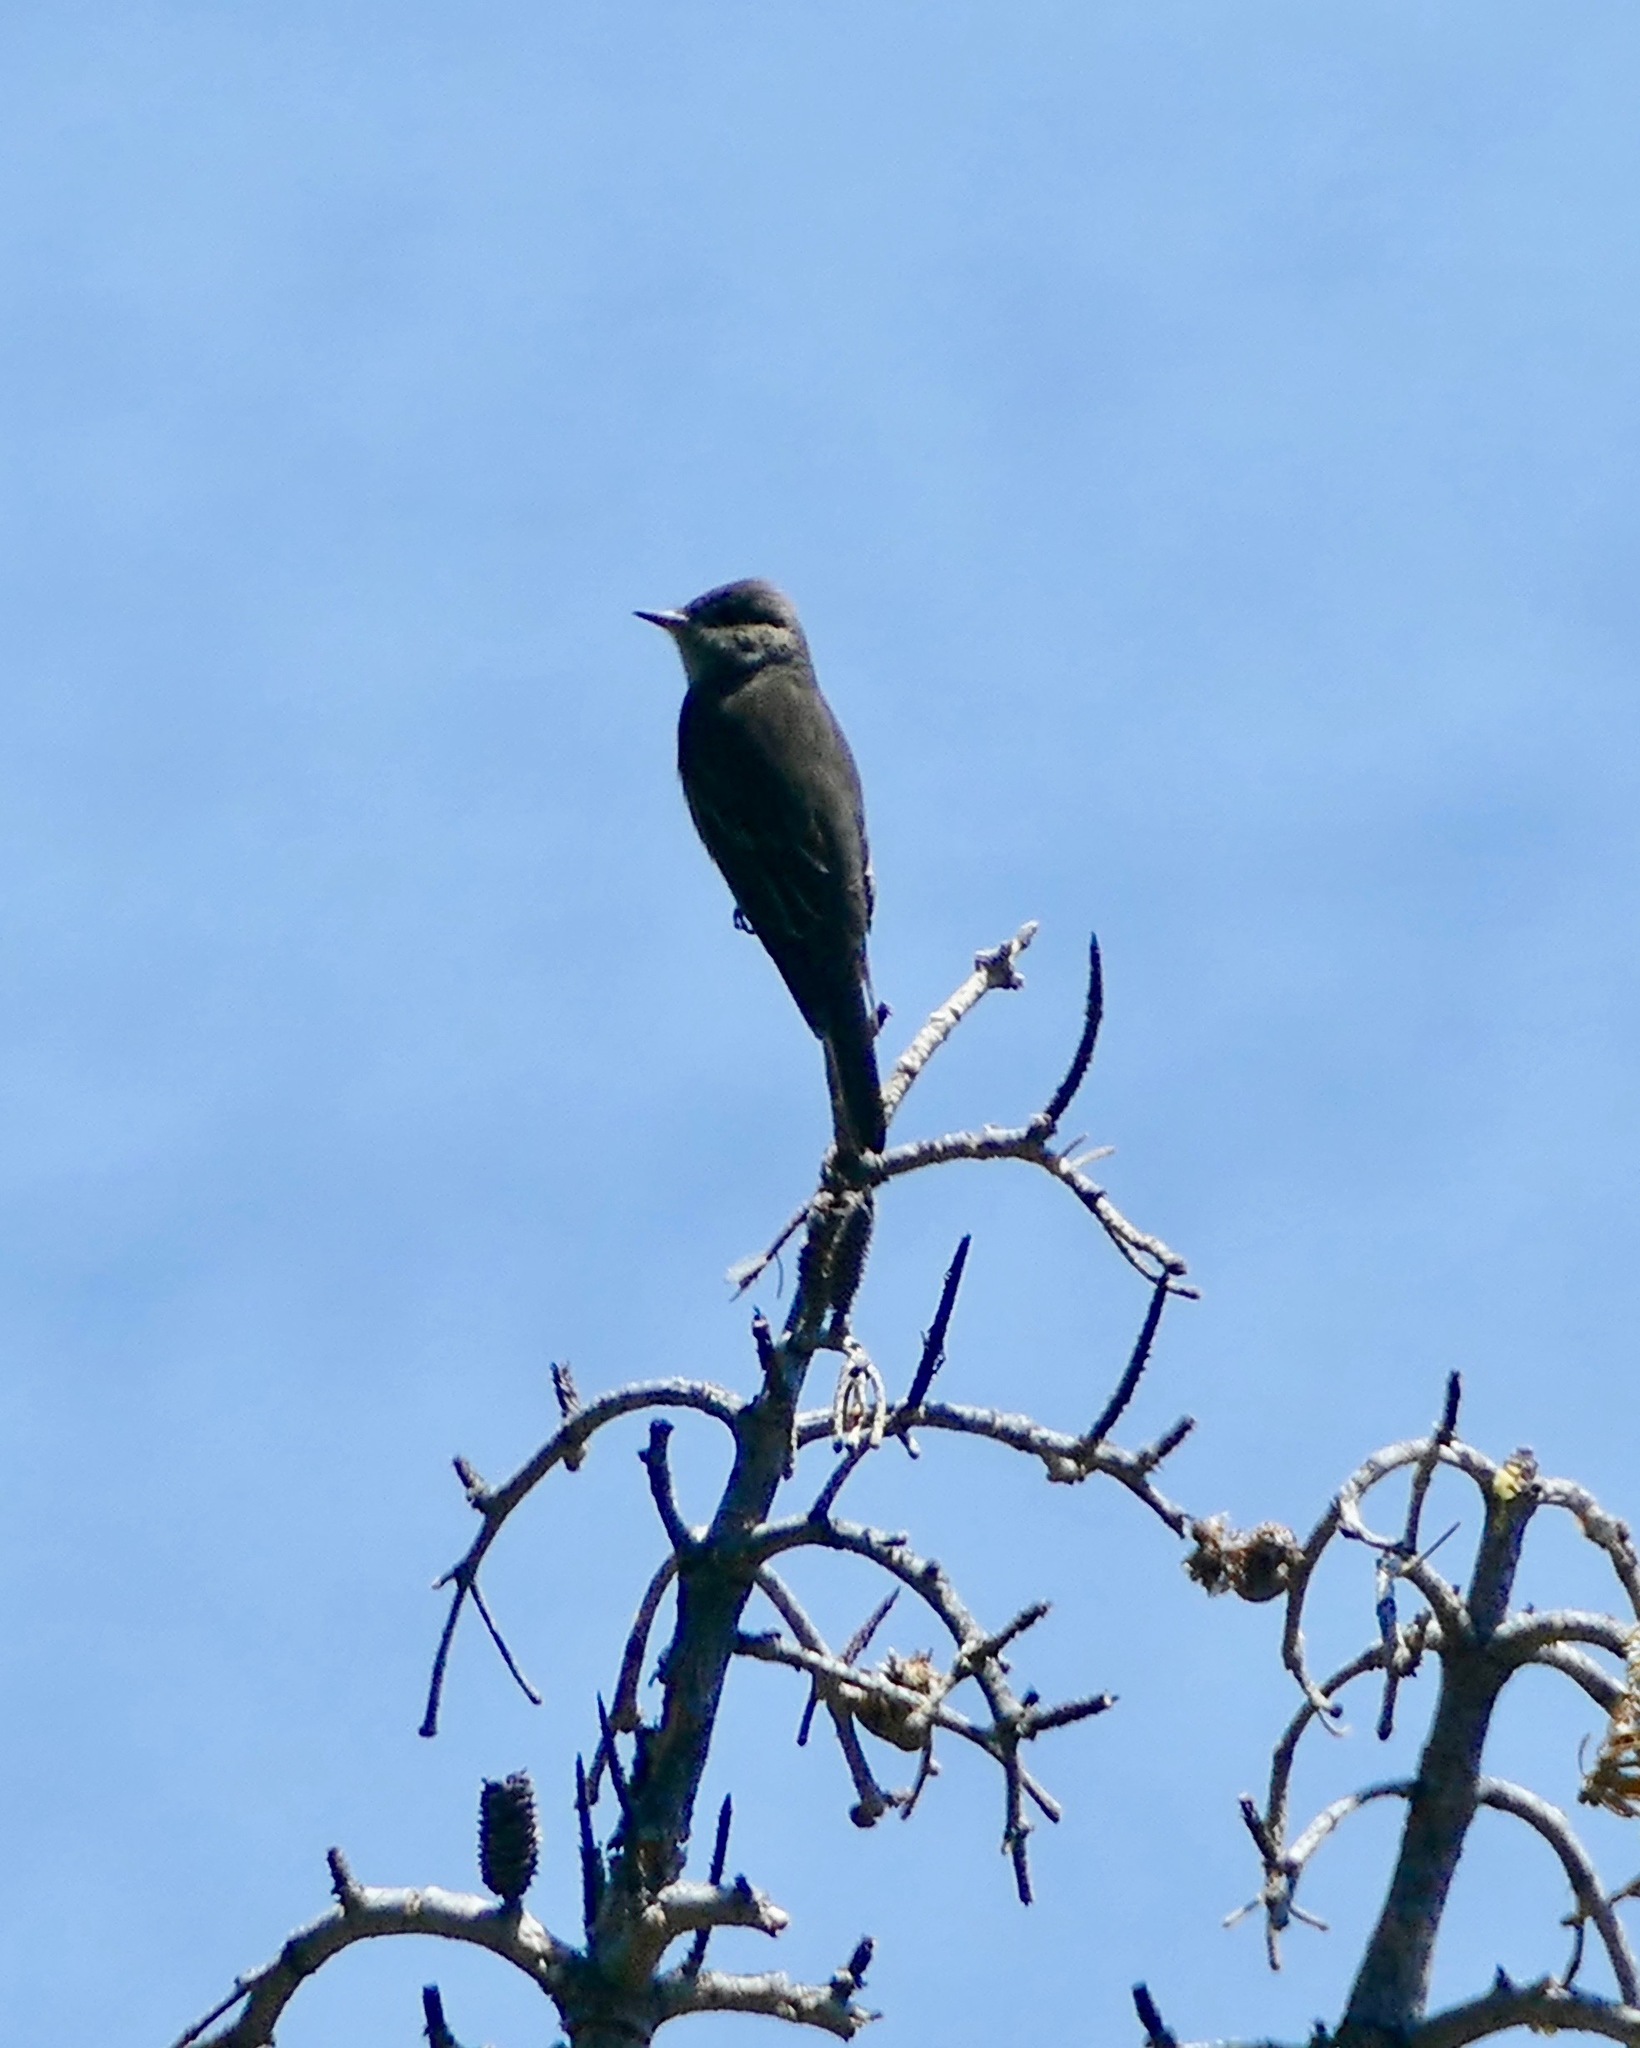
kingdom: Animalia
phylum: Chordata
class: Aves
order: Passeriformes
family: Tyrannidae
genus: Contopus
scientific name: Contopus cooperi
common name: Olive-sided flycatcher
